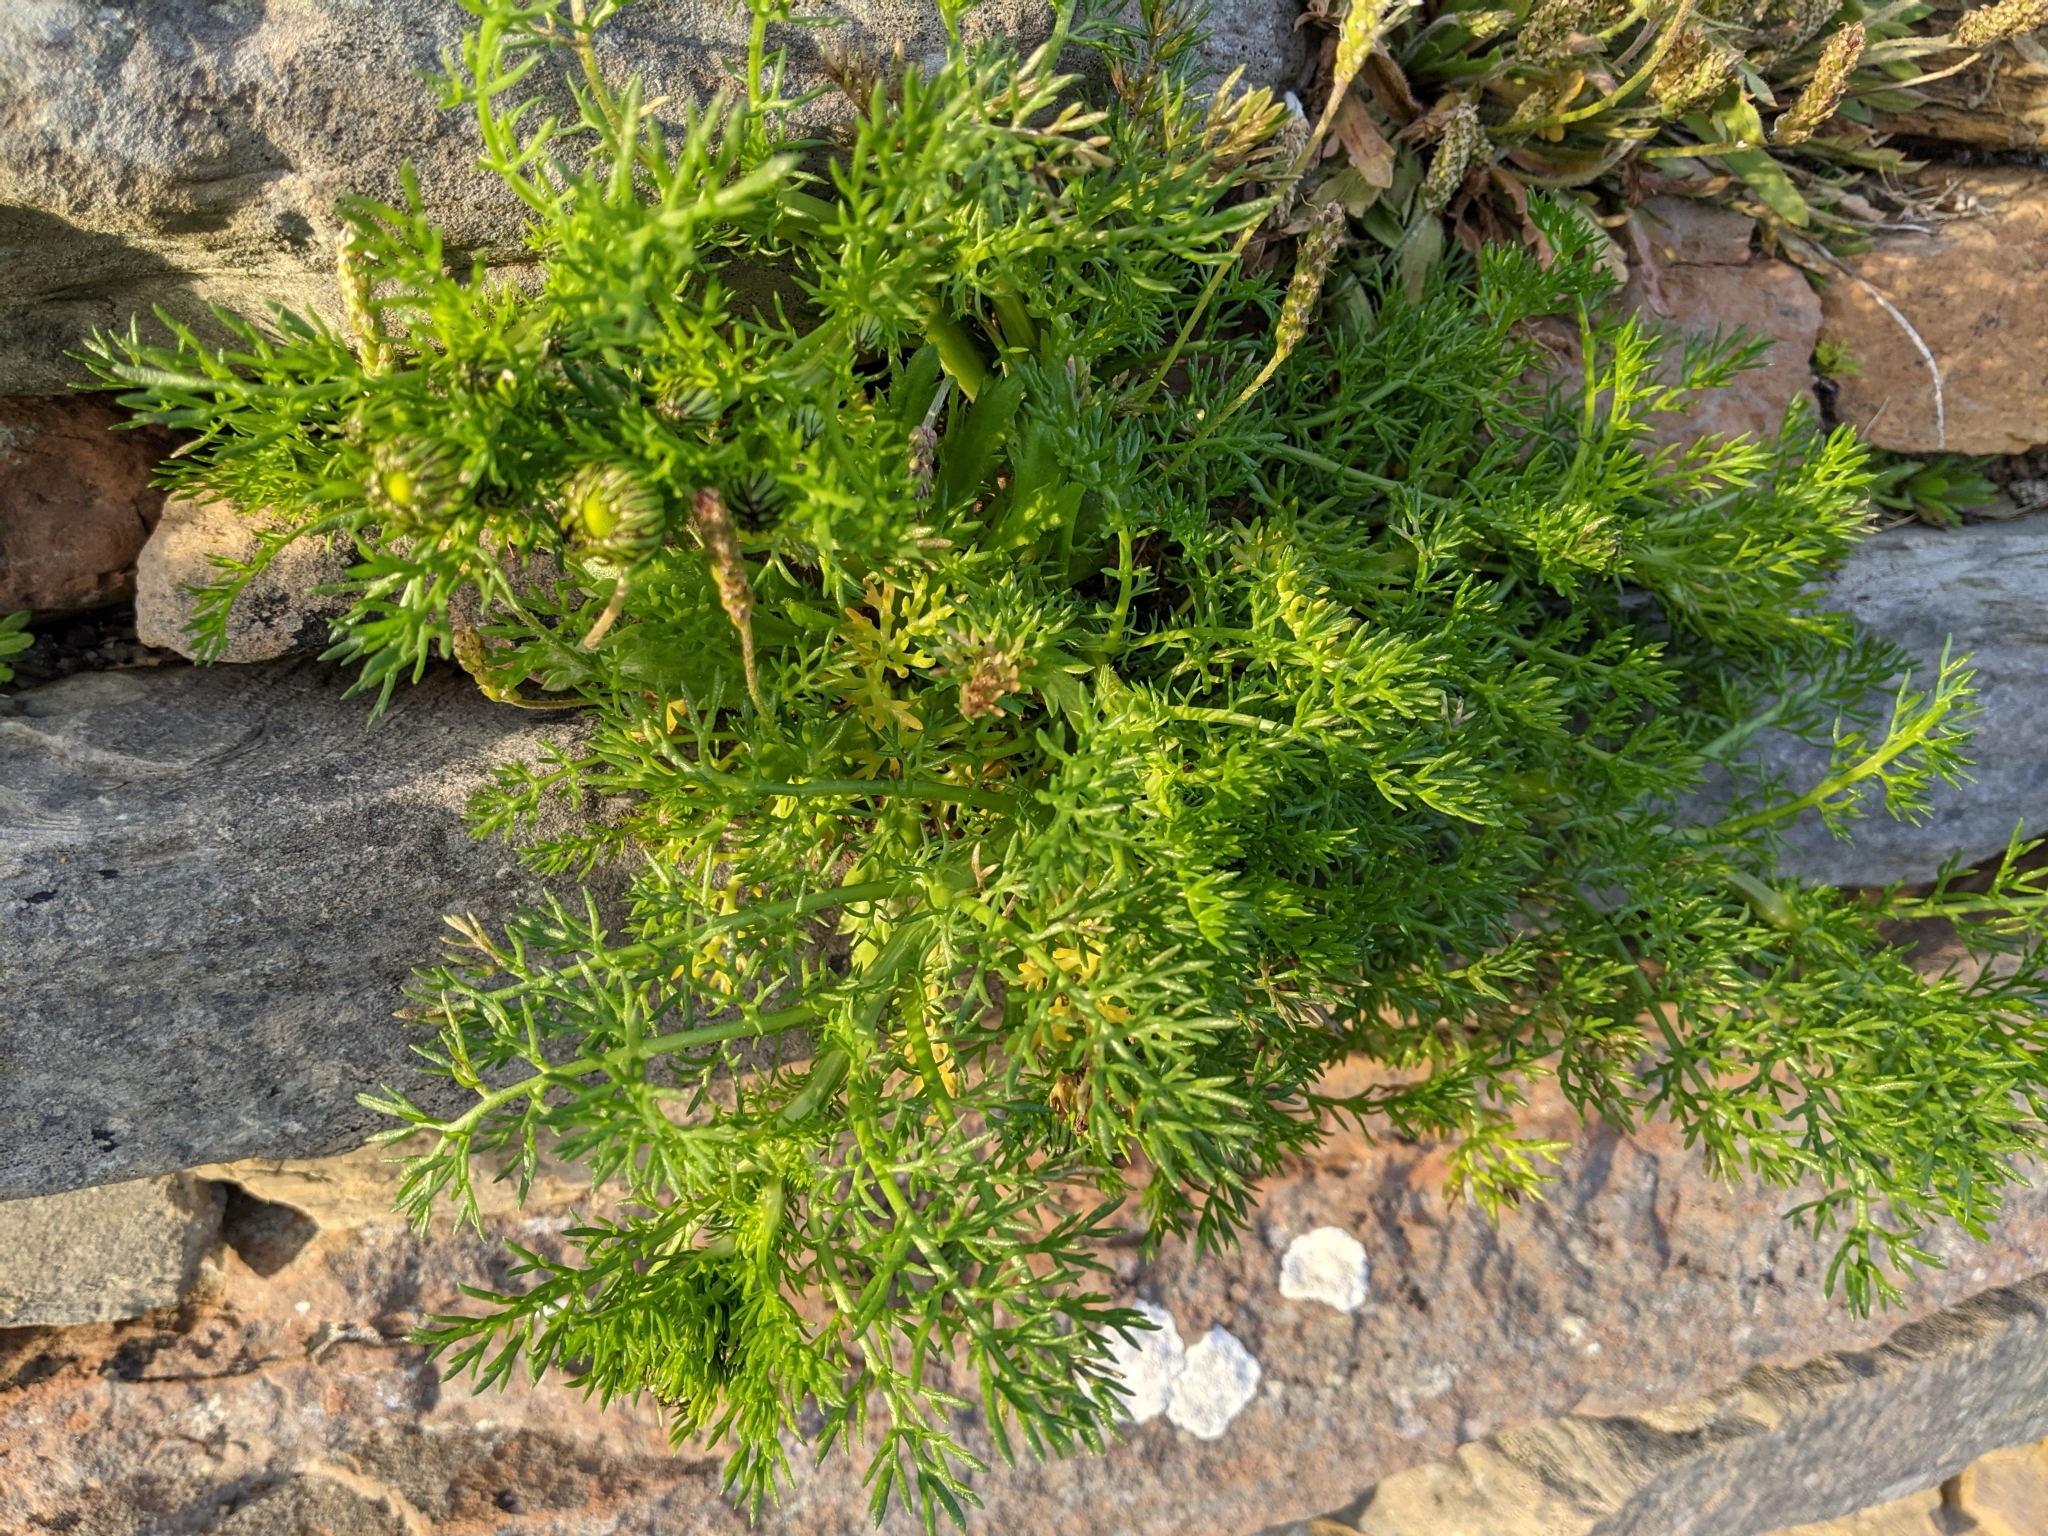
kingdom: Plantae
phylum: Tracheophyta
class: Magnoliopsida
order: Asterales
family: Asteraceae
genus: Tripleurospermum
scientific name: Tripleurospermum maritimum
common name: Sea mayweed
